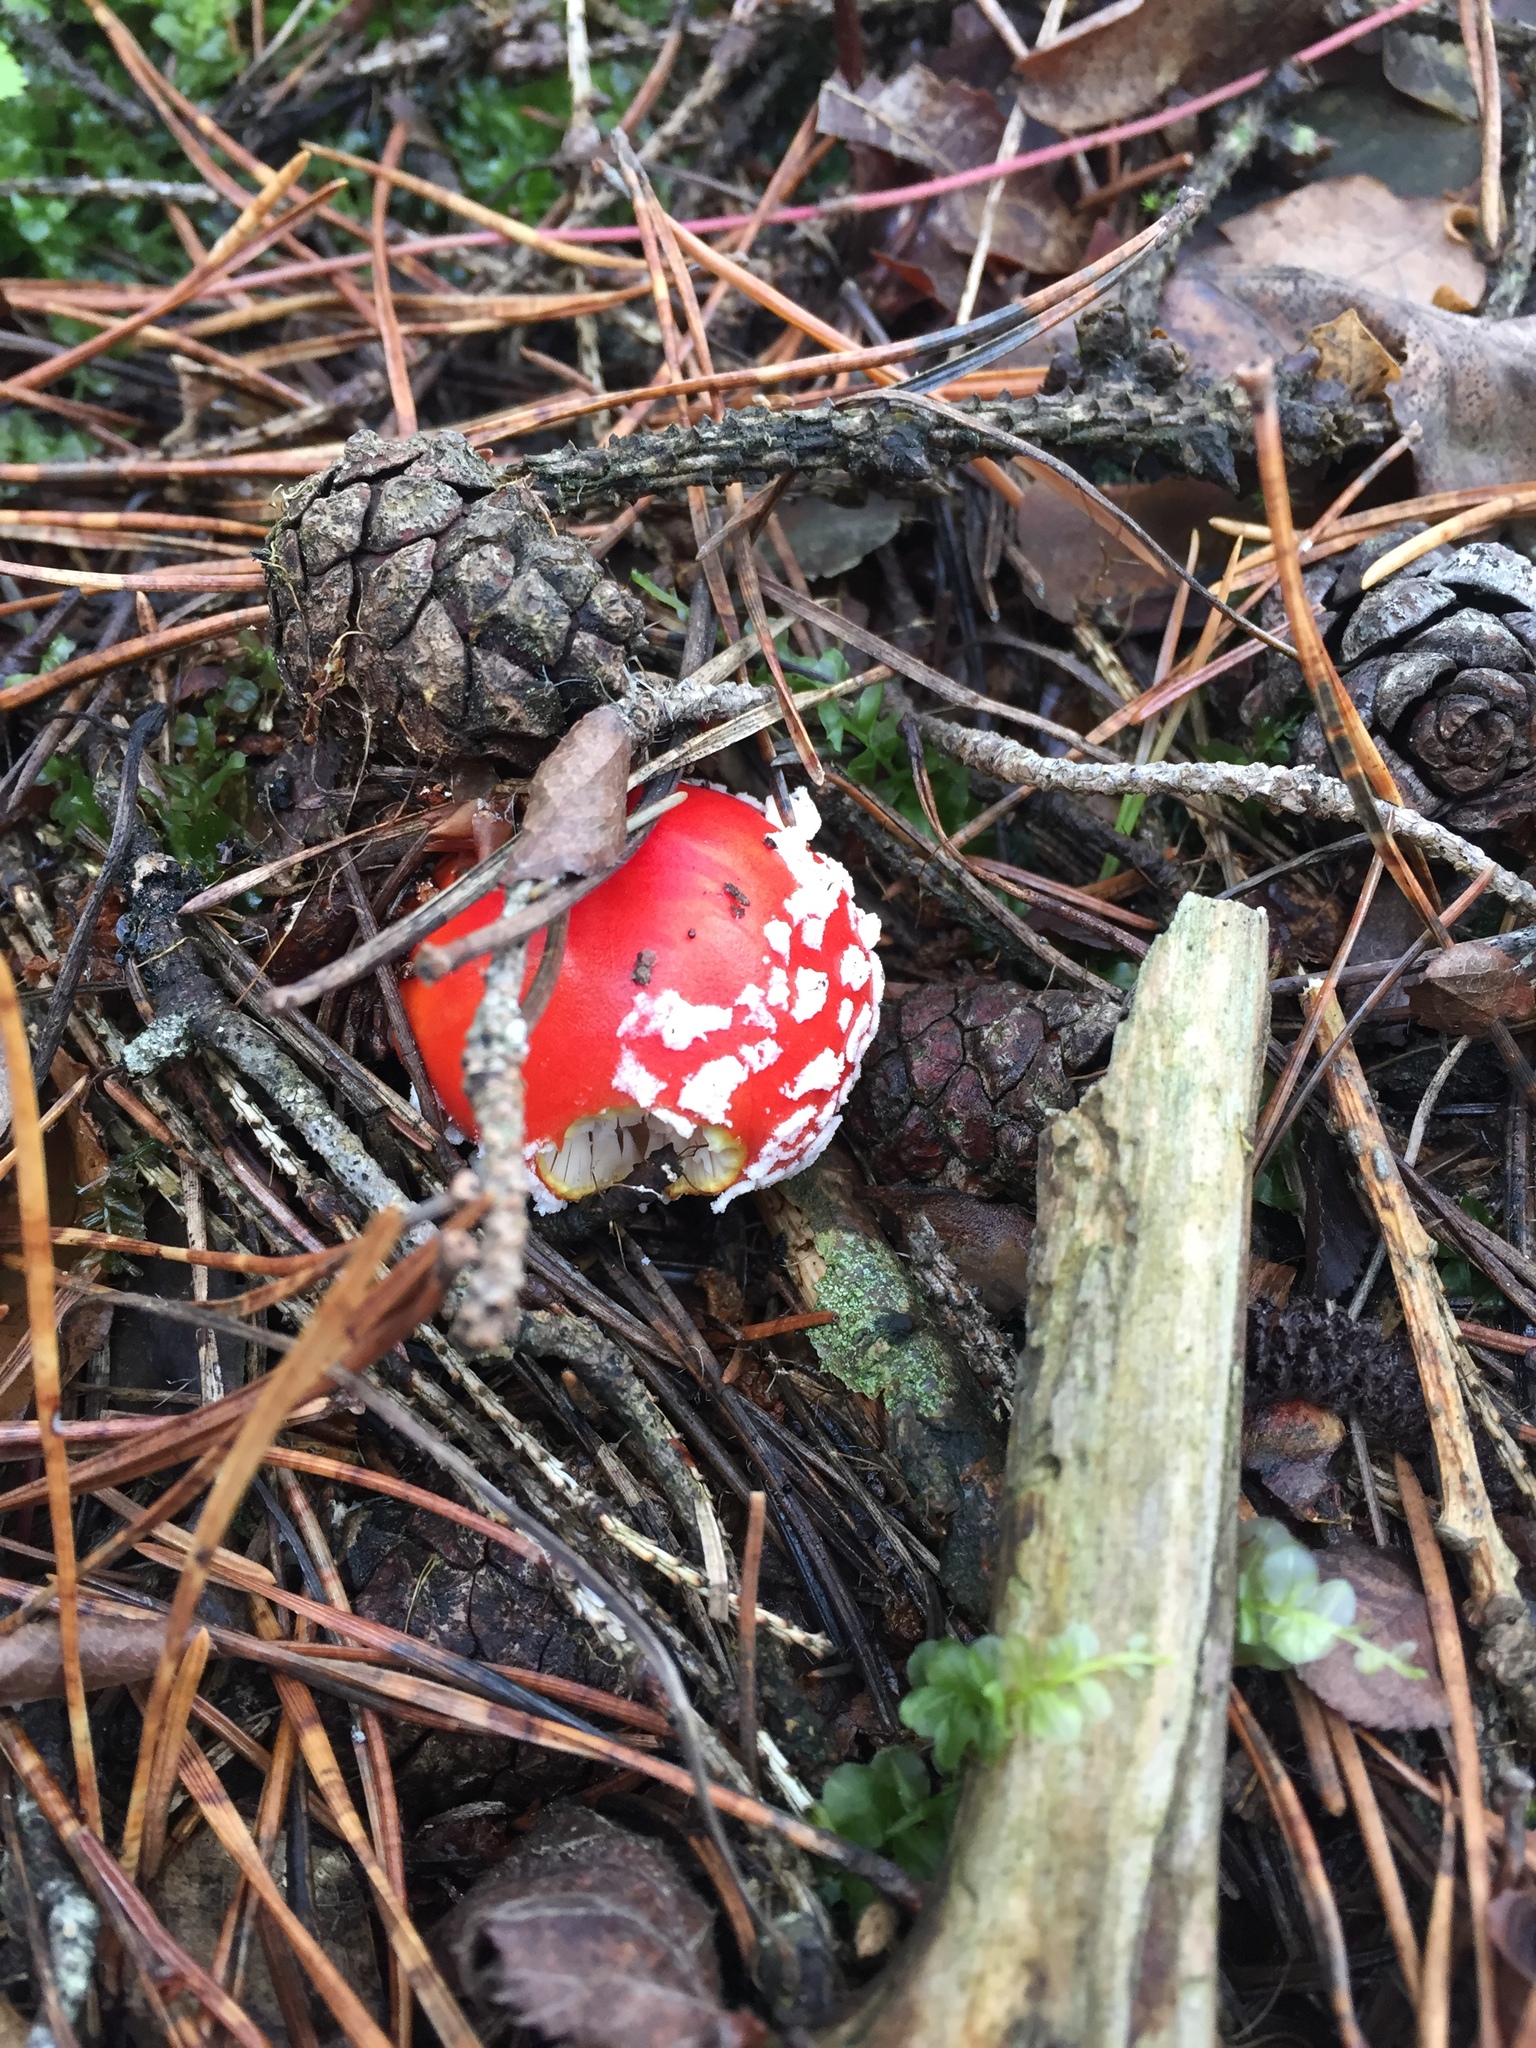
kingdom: Fungi
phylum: Basidiomycota
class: Agaricomycetes
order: Agaricales
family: Amanitaceae
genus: Amanita
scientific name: Amanita muscaria
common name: Fly agaric
